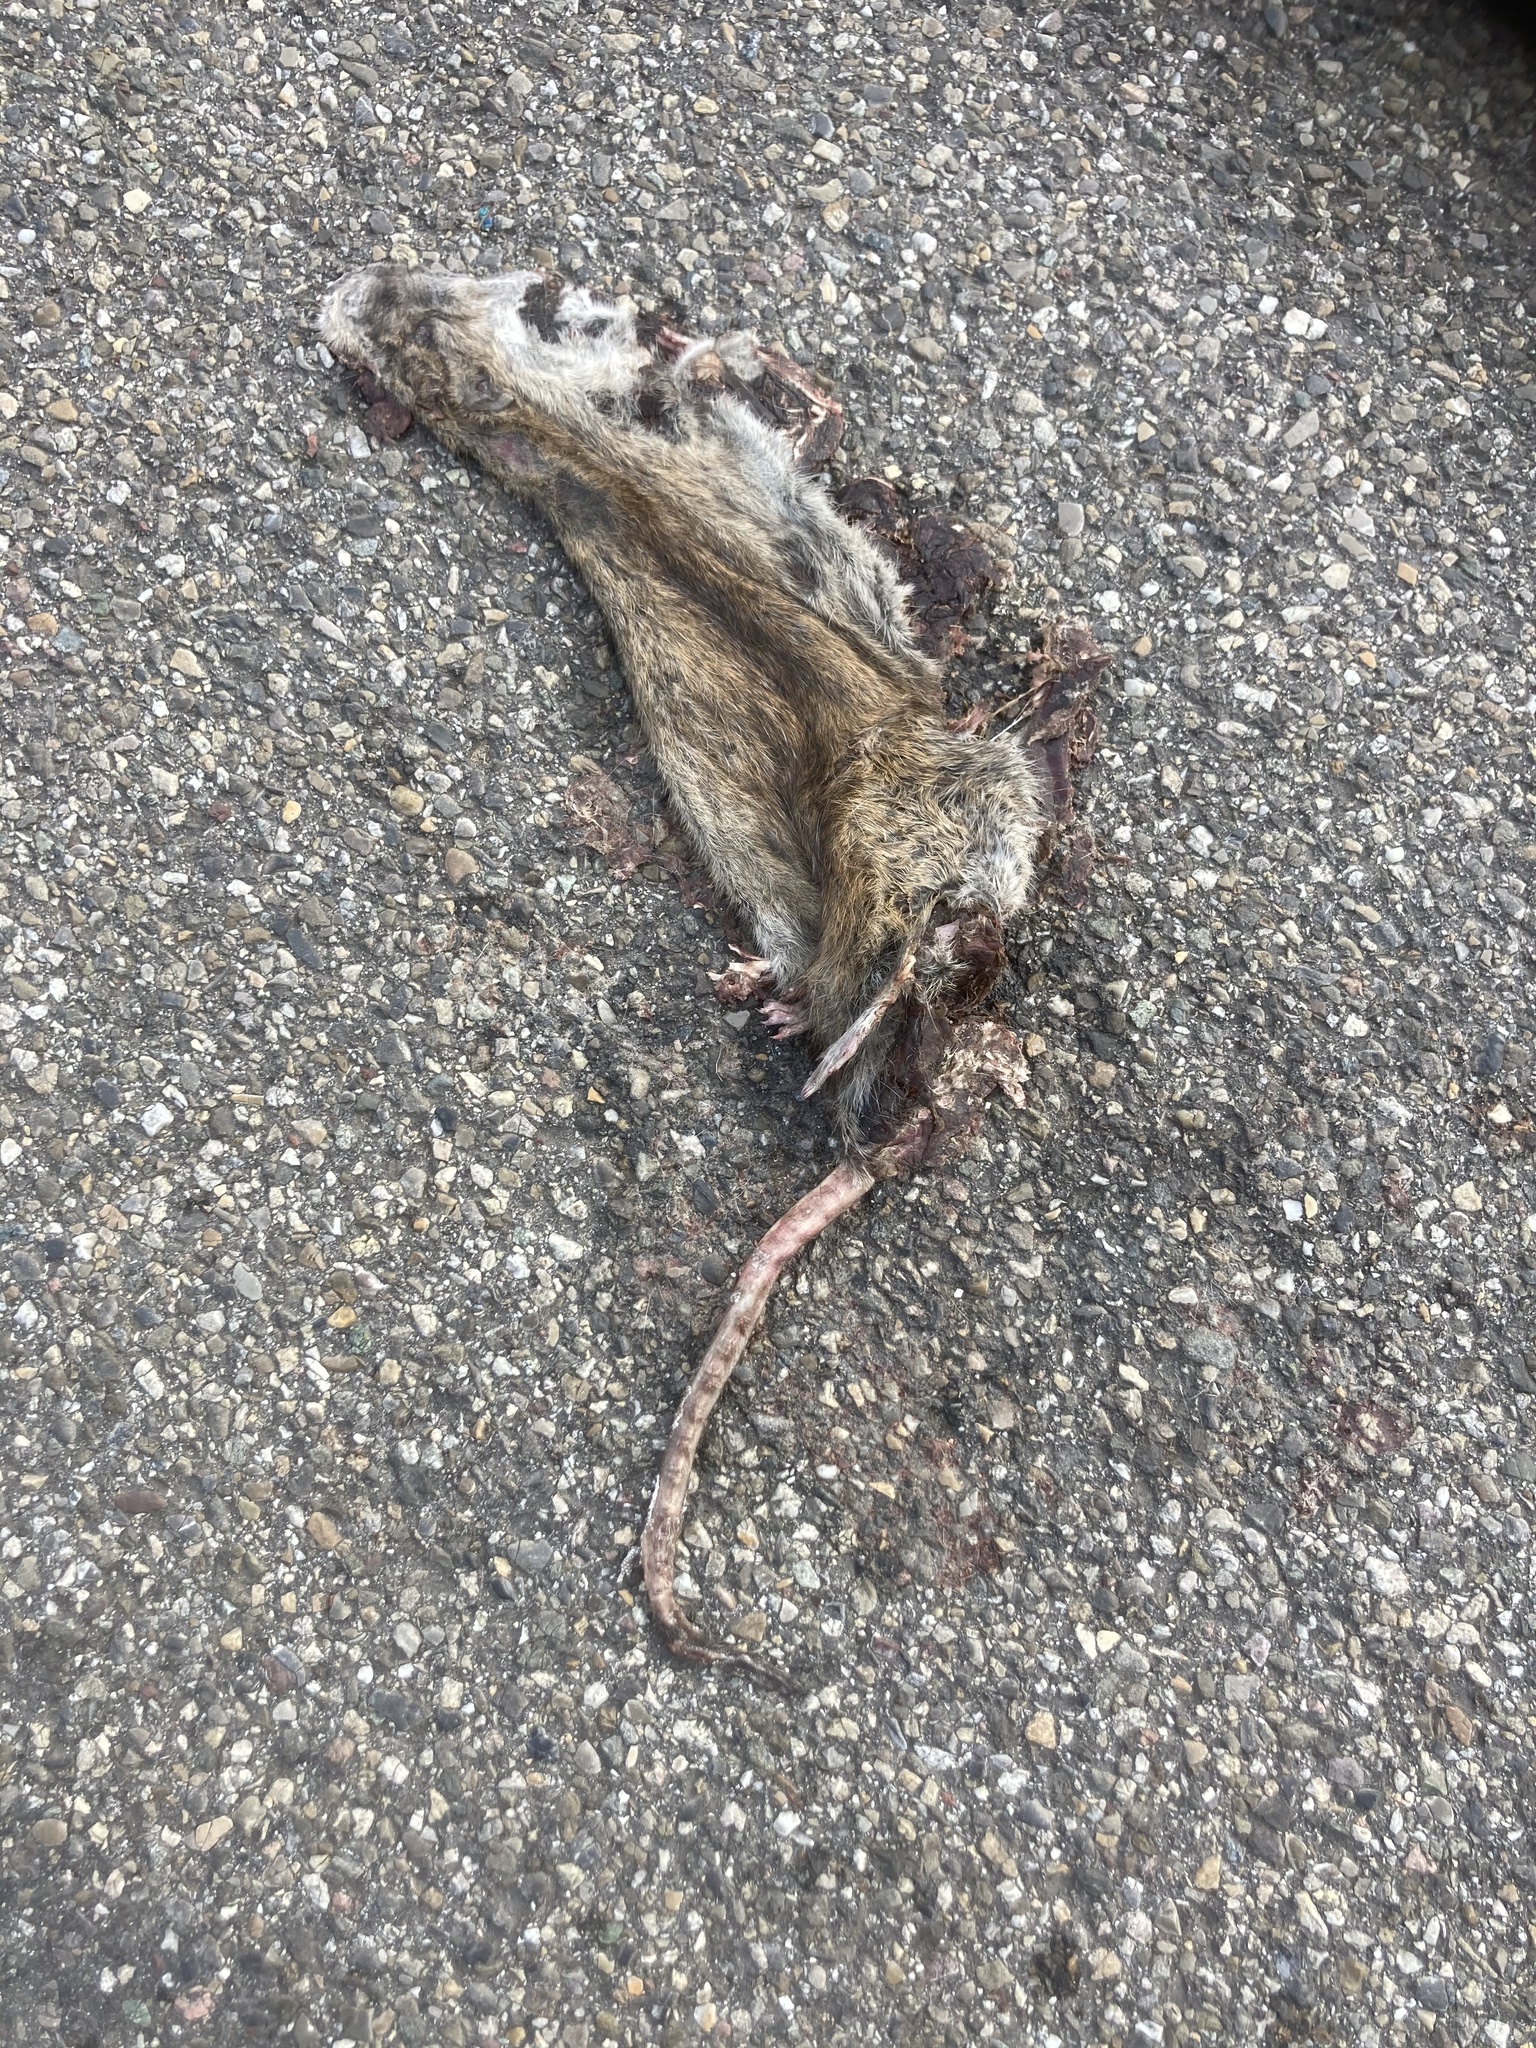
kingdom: Animalia
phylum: Chordata
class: Mammalia
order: Rodentia
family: Muridae
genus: Rattus
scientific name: Rattus norvegicus
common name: Brown rat
